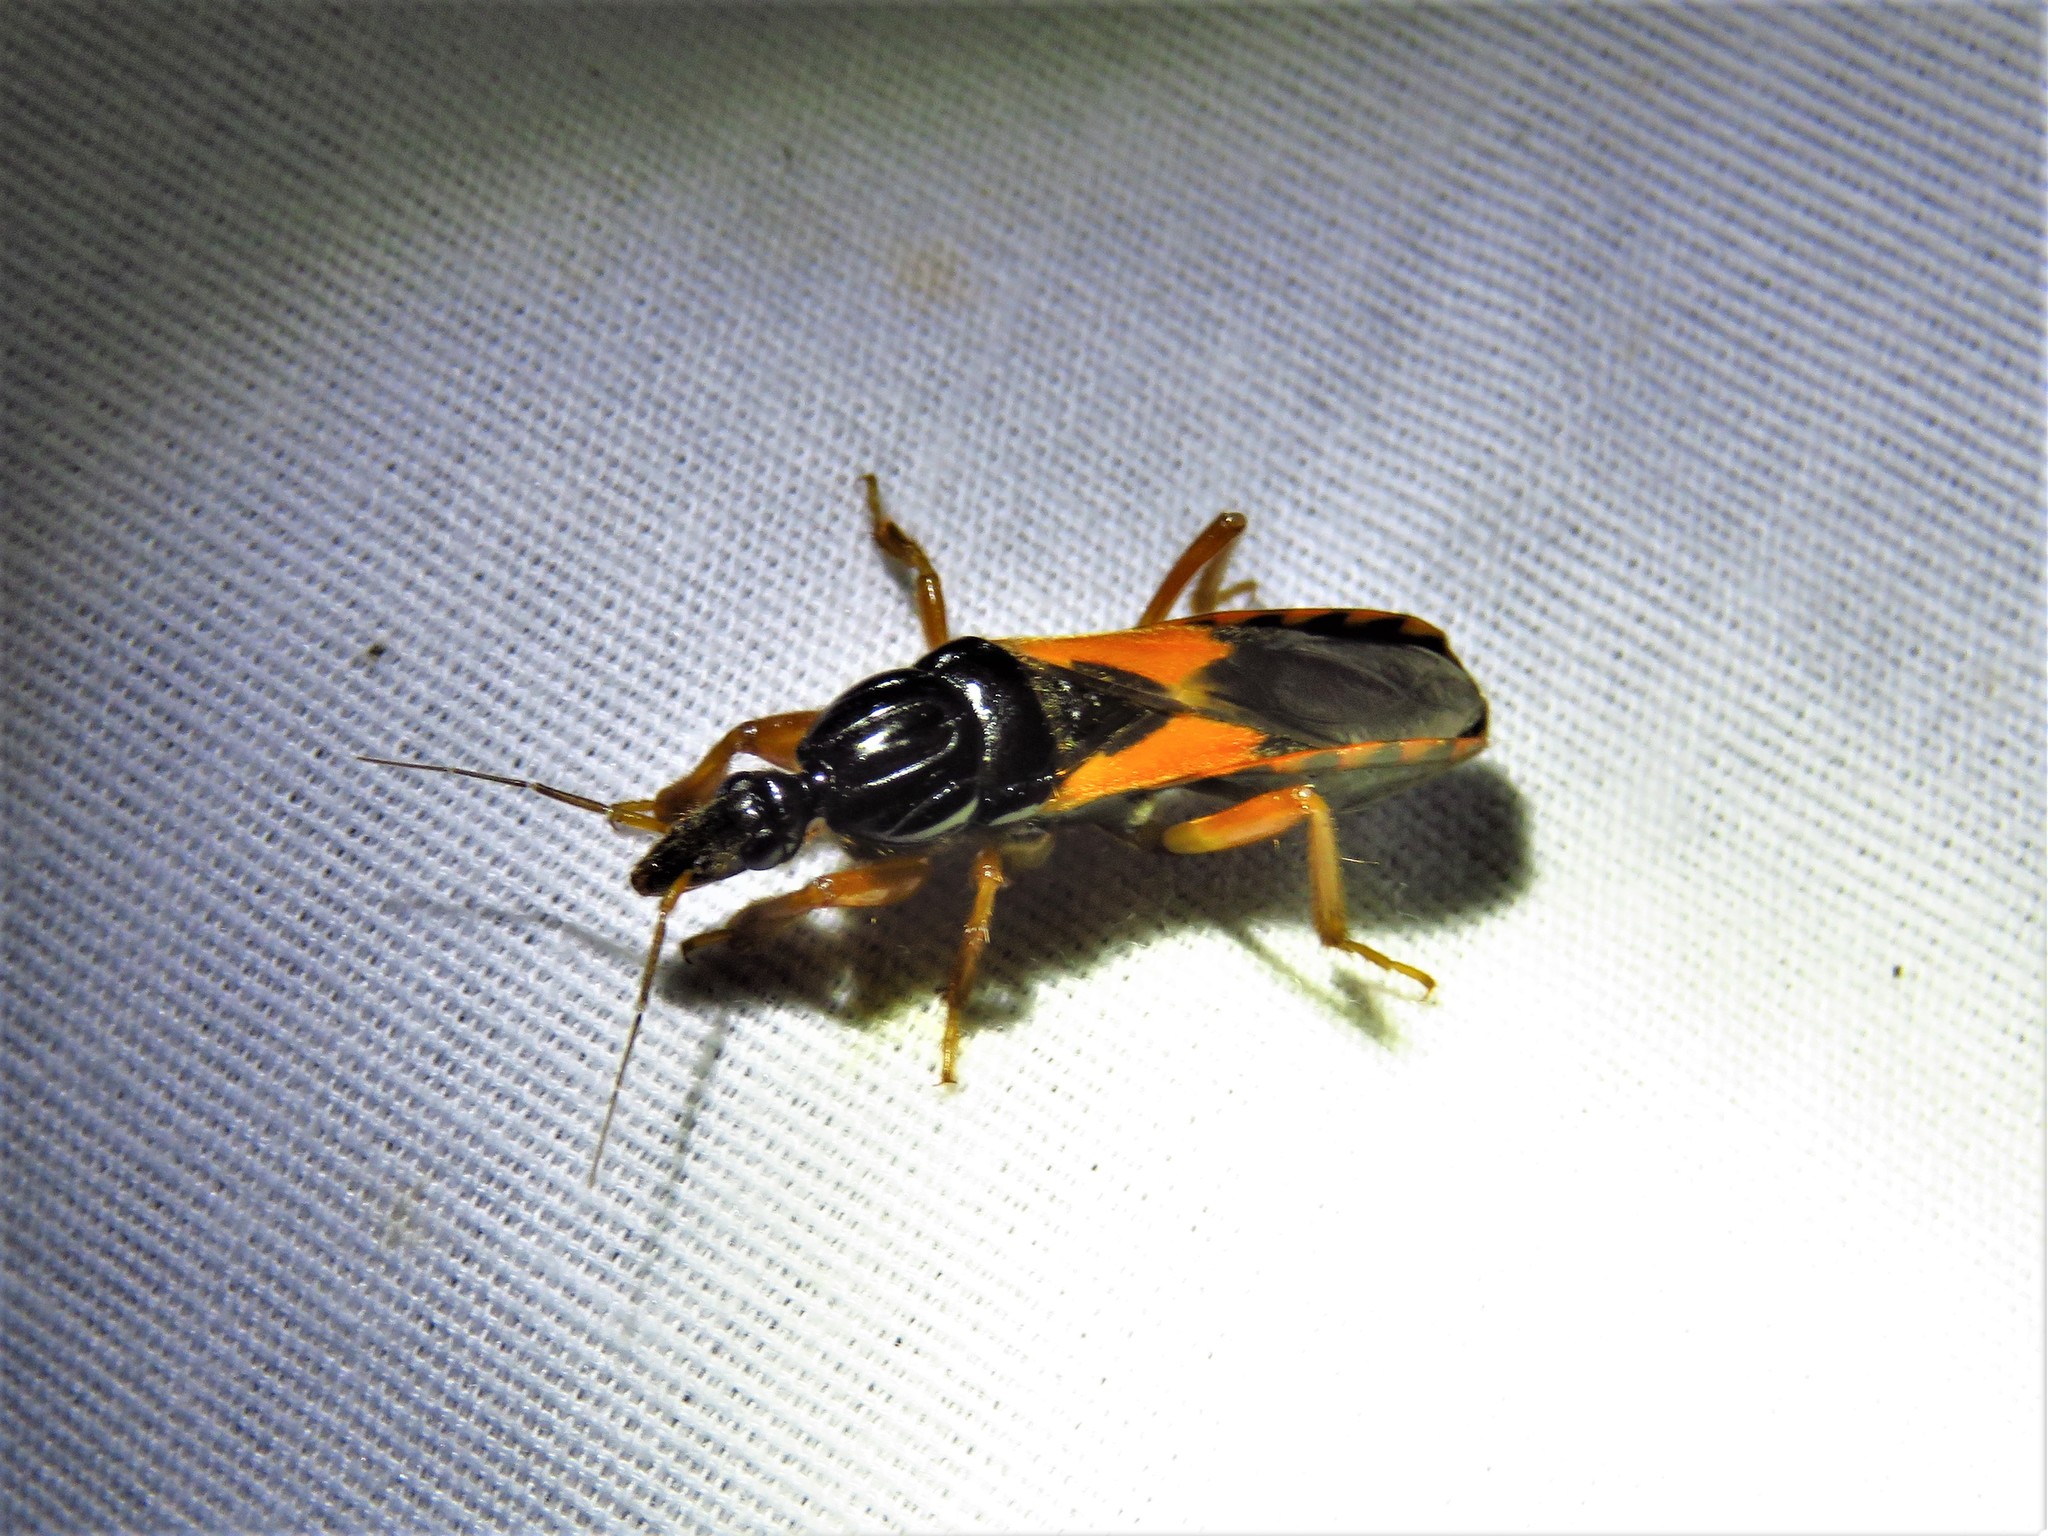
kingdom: Animalia
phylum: Arthropoda
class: Insecta
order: Hemiptera
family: Reduviidae
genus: Sirthenea
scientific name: Sirthenea stria
